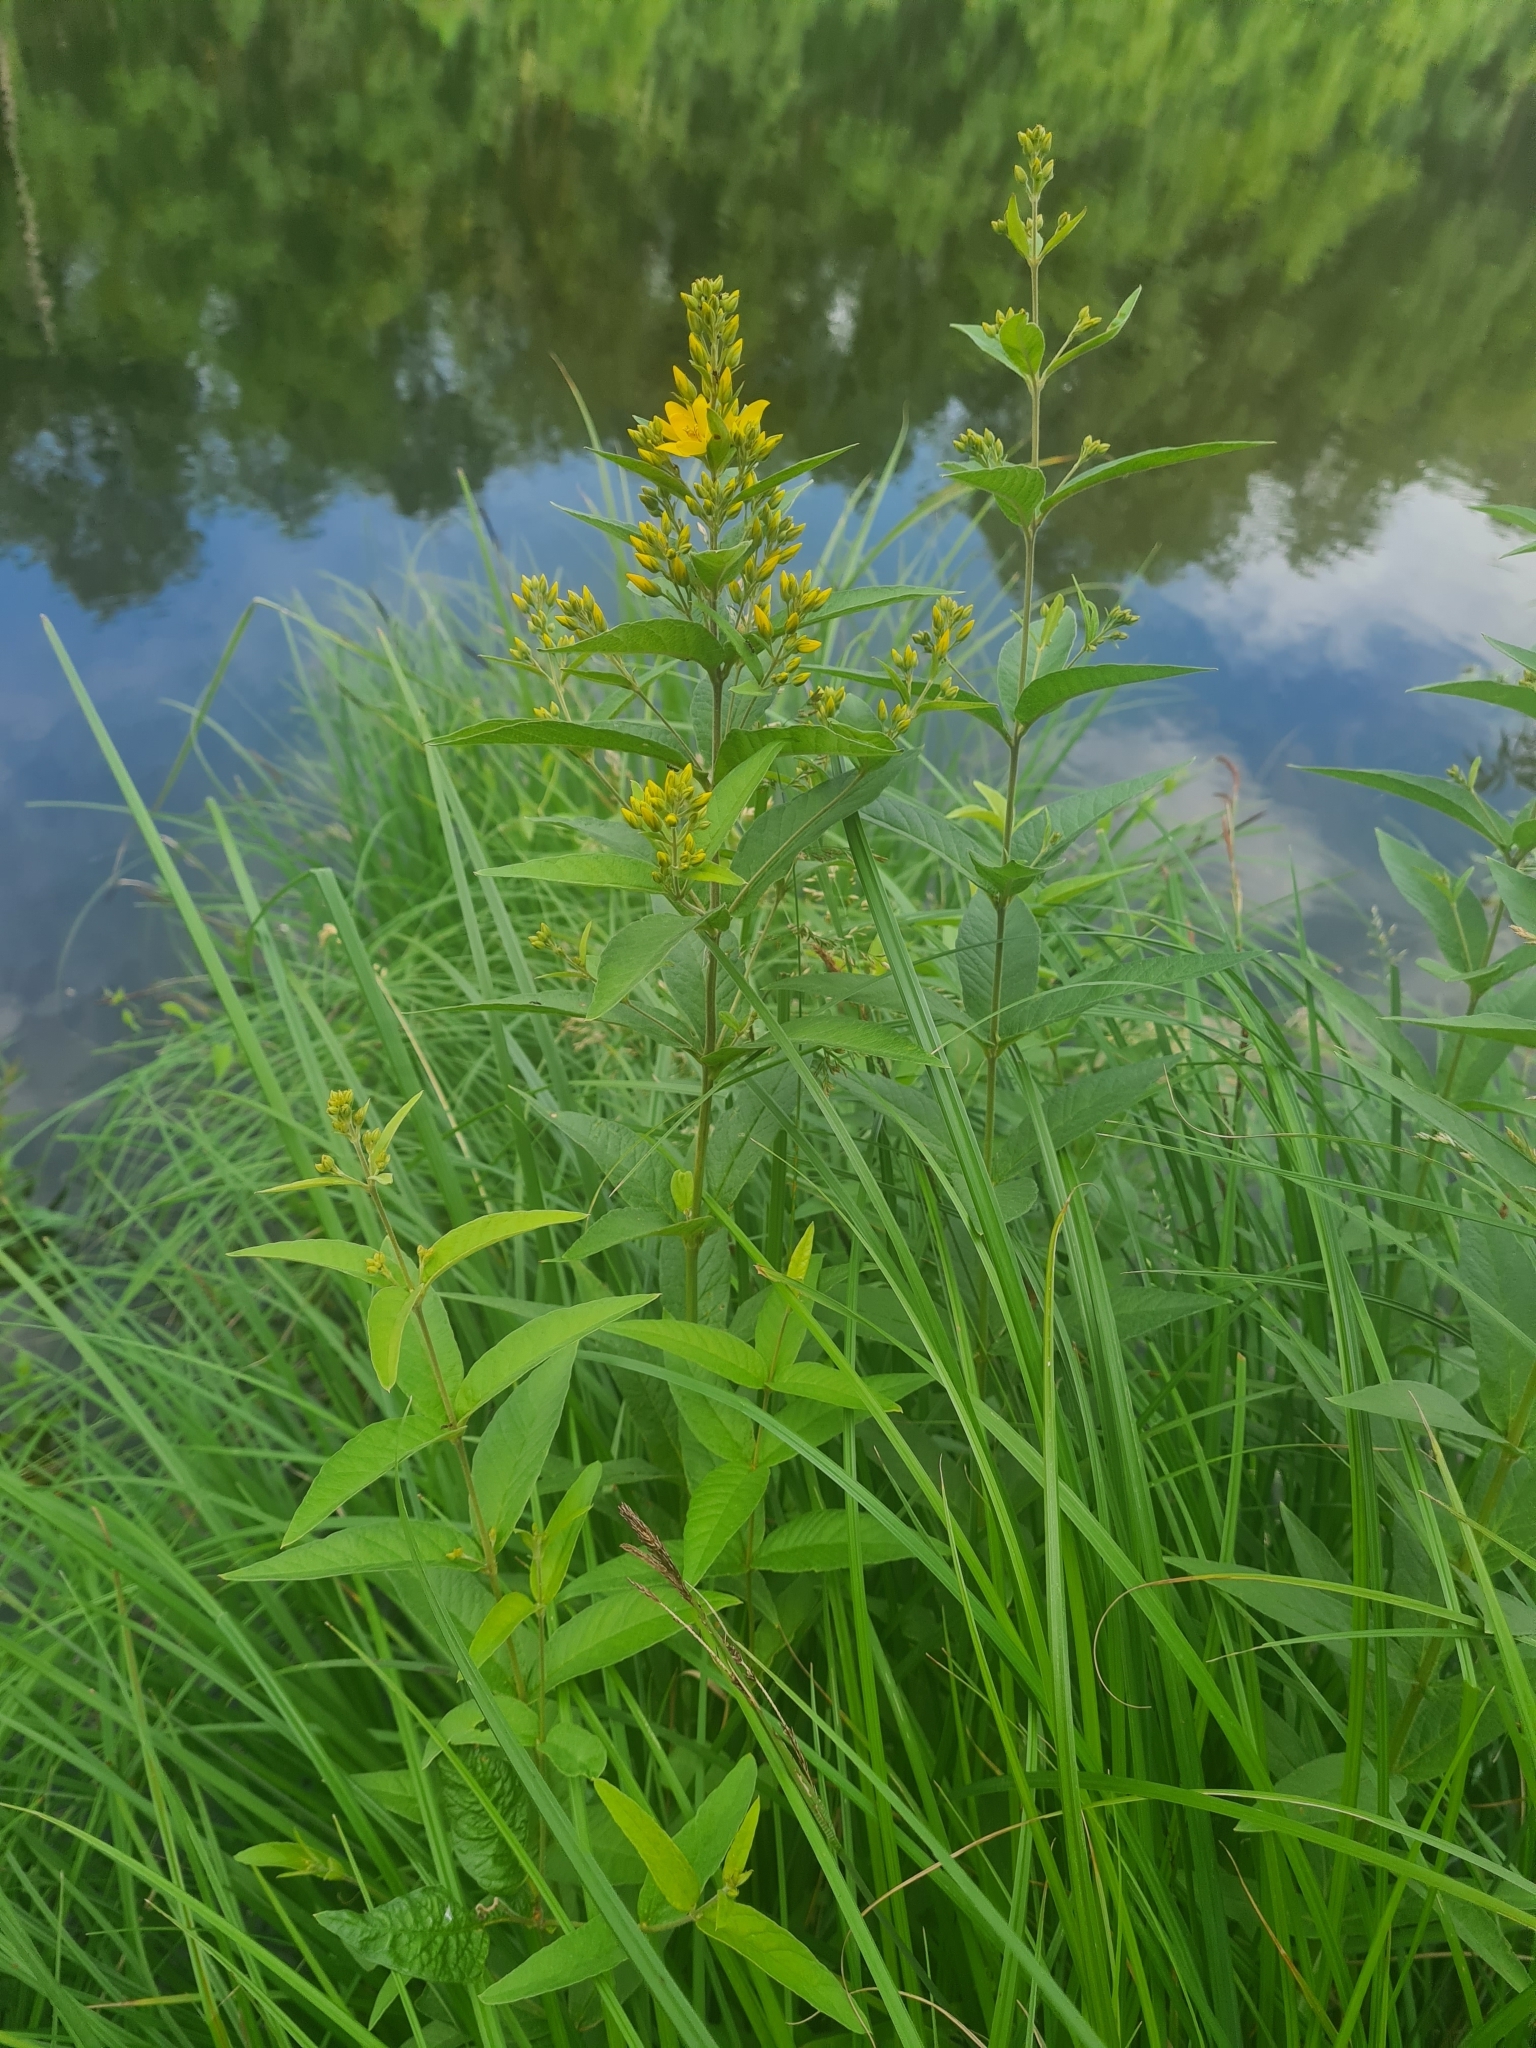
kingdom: Plantae
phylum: Tracheophyta
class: Magnoliopsida
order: Ericales
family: Primulaceae
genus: Lysimachia
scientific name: Lysimachia vulgaris
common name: Yellow loosestrife
